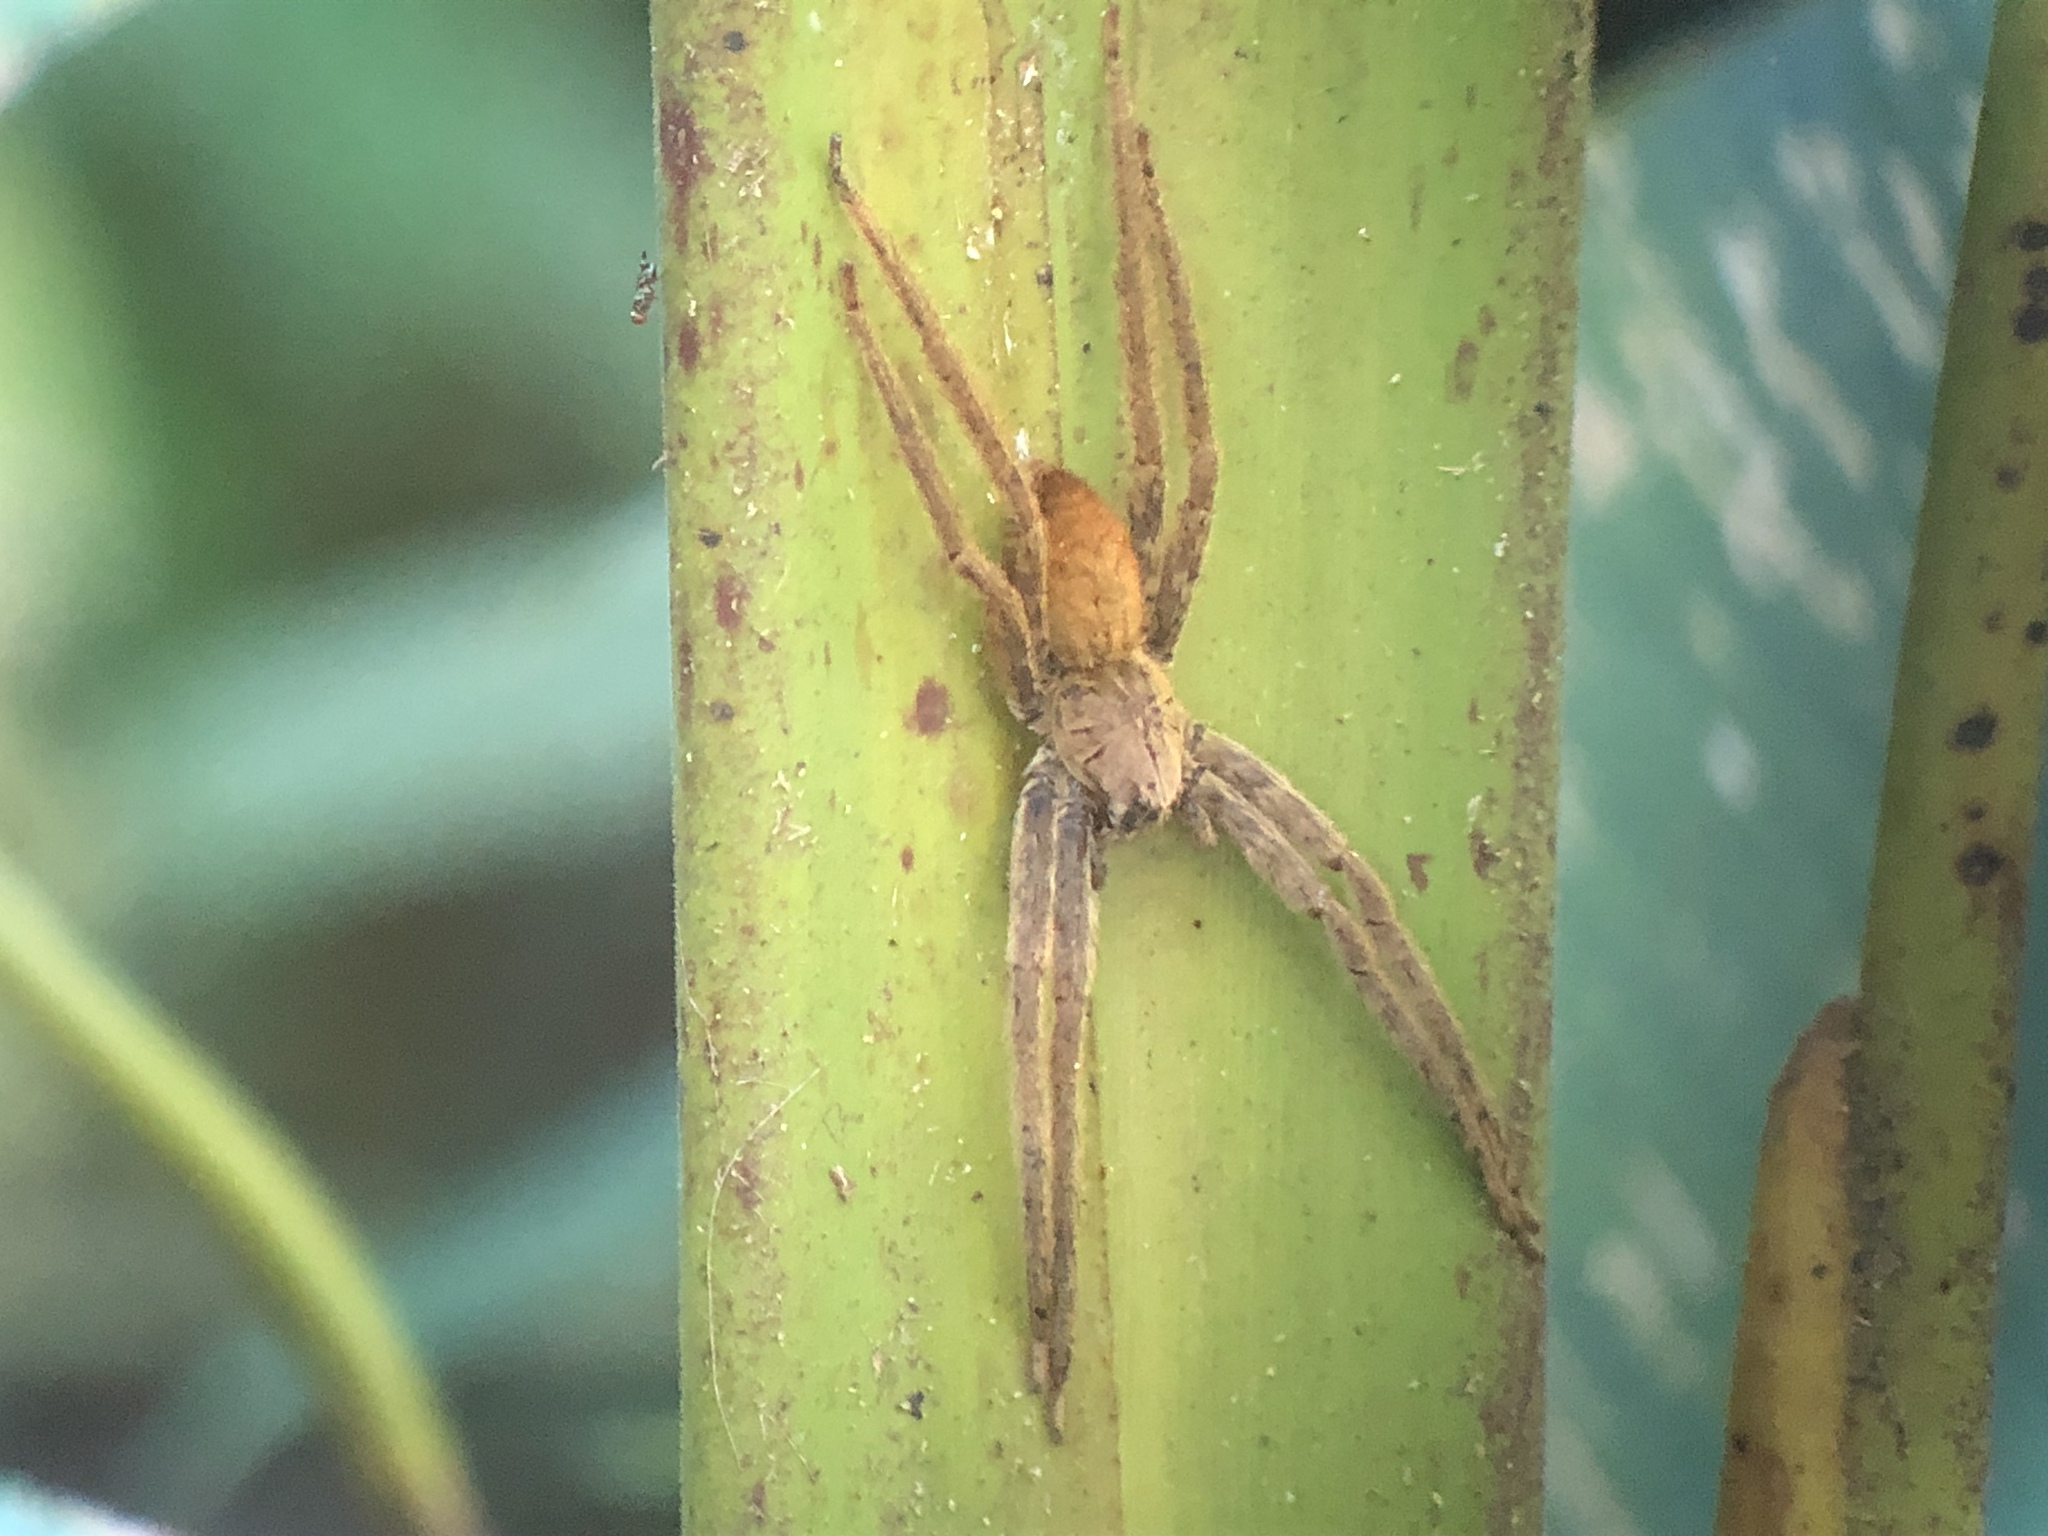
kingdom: Animalia
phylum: Arthropoda
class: Arachnida
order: Araneae
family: Trechaleidae
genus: Cupiennius
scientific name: Cupiennius coccineus
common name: Wandering spiders
